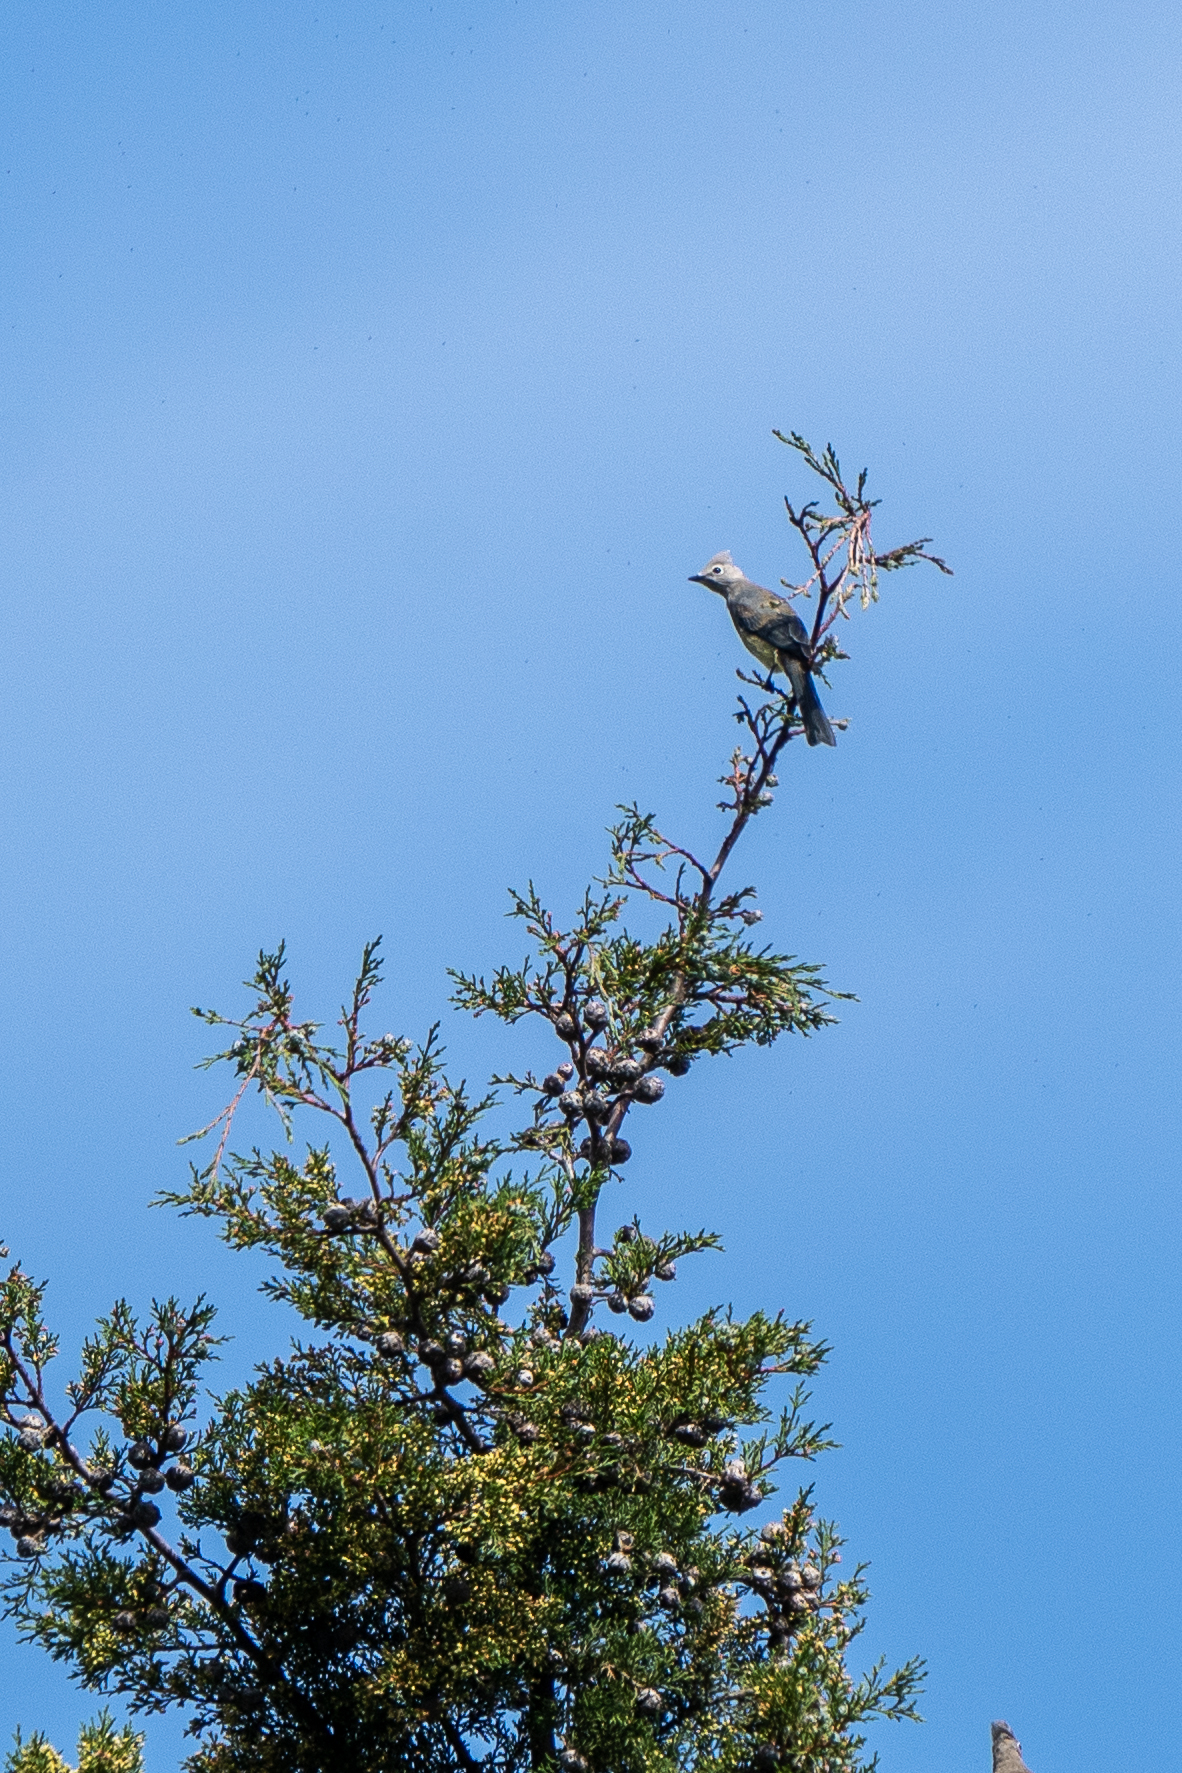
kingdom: Animalia
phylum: Chordata
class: Aves
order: Passeriformes
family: Ptilogonatidae
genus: Ptilogonys
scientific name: Ptilogonys cinereus
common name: Gray silky-flycatcher
